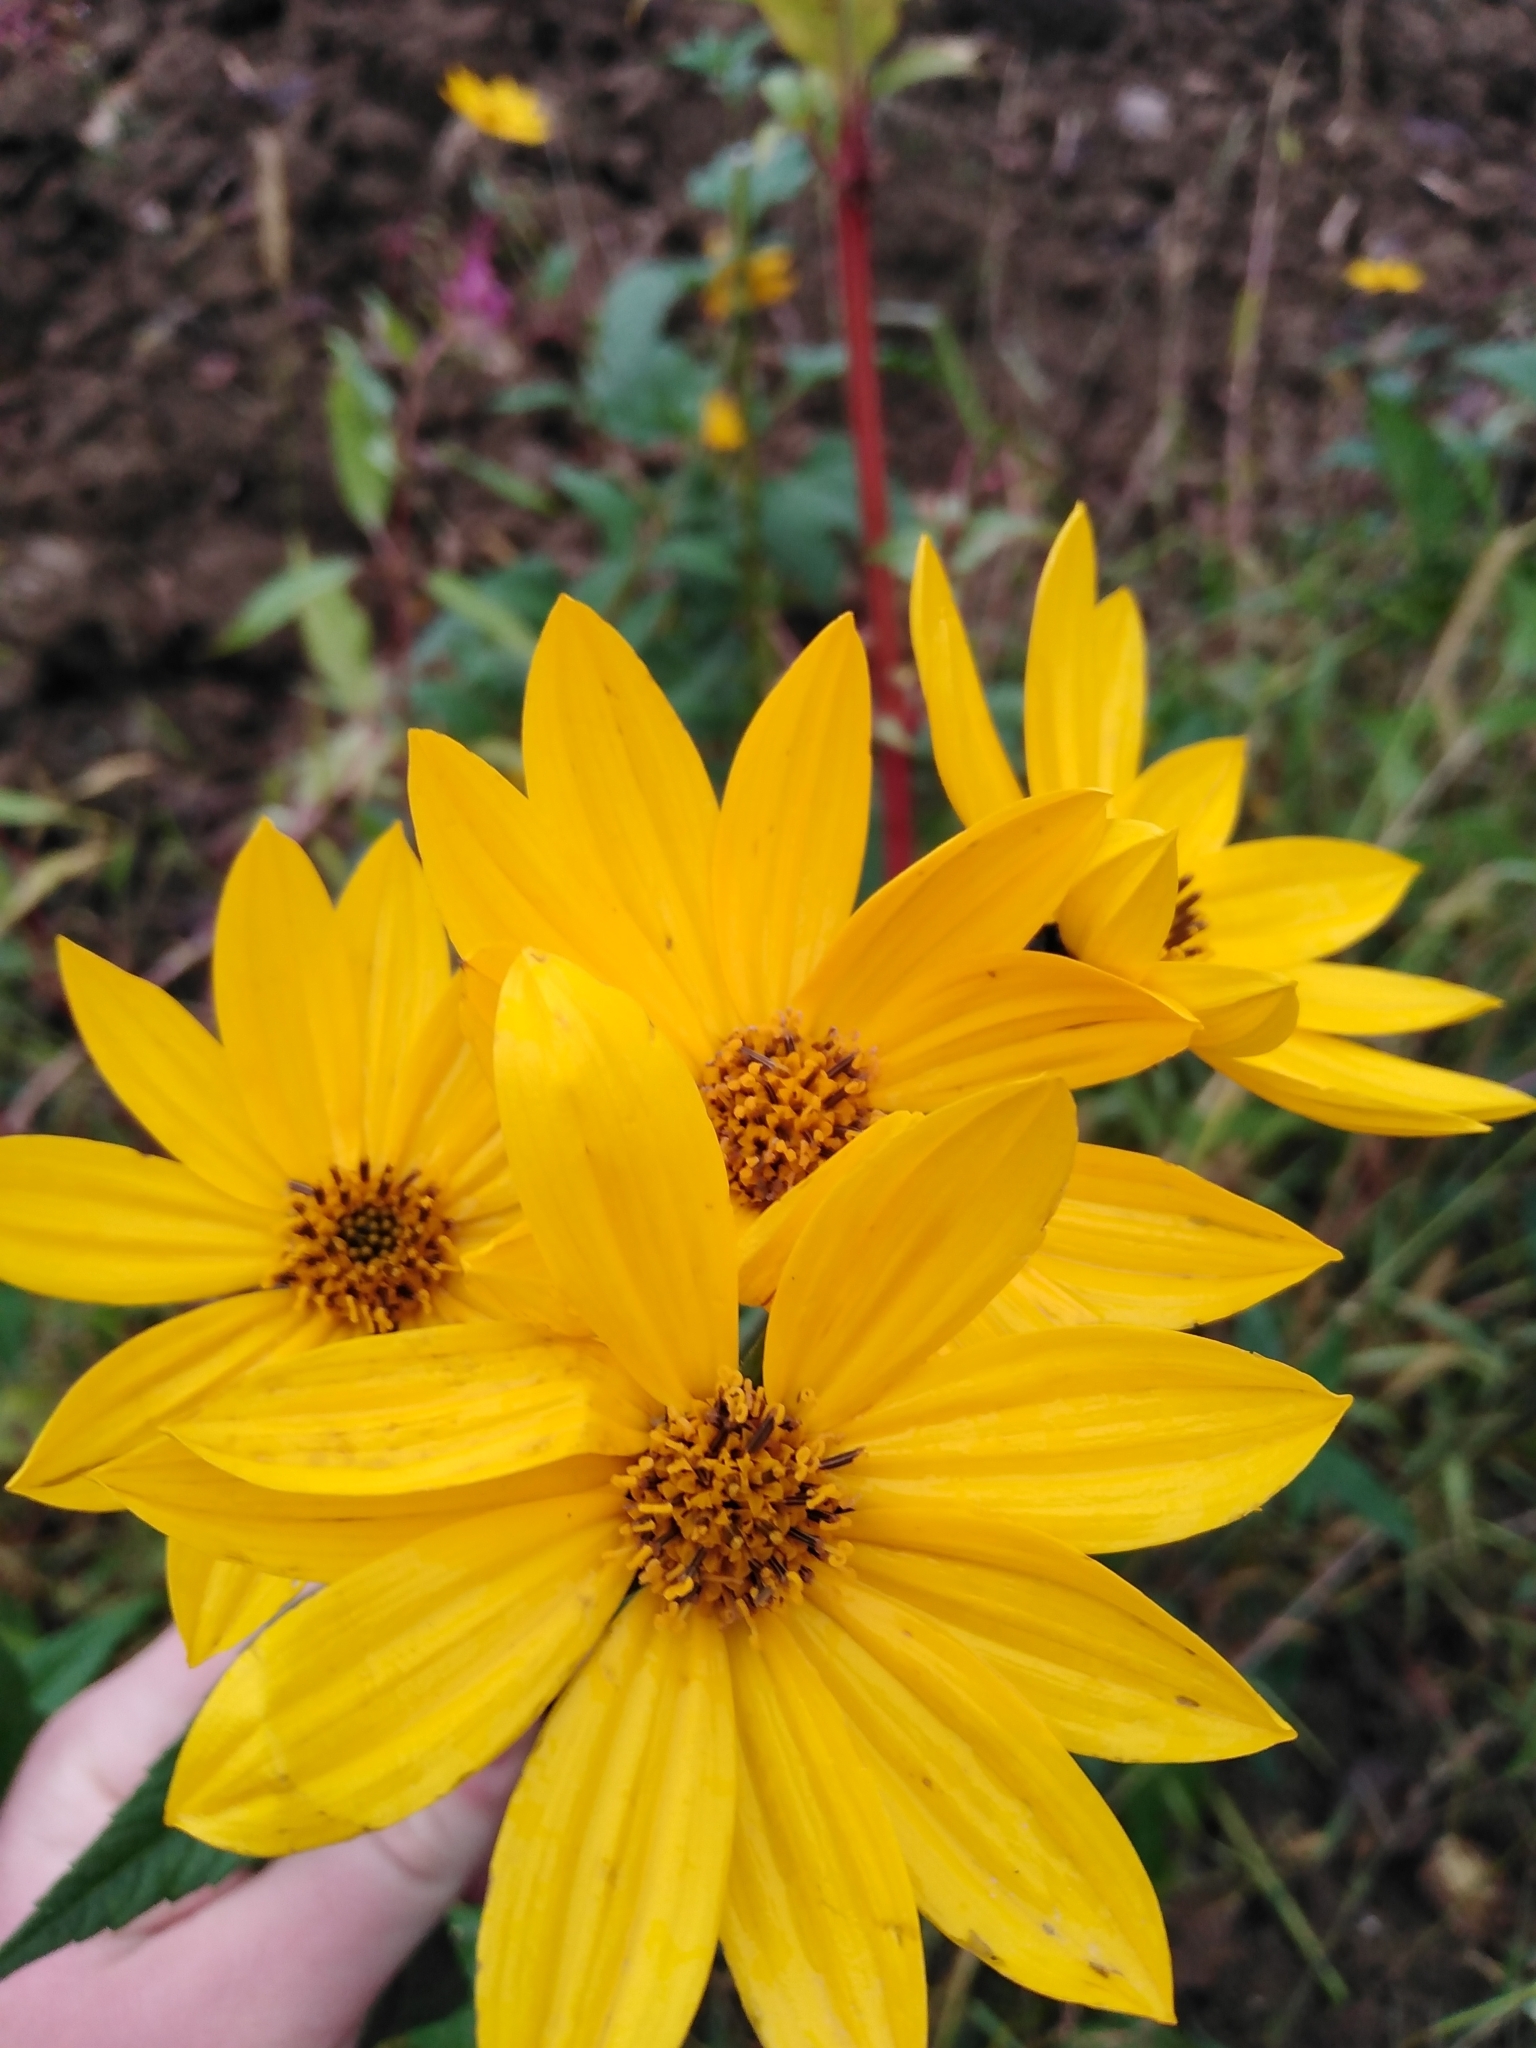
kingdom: Plantae
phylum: Tracheophyta
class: Magnoliopsida
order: Asterales
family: Asteraceae
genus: Helianthus
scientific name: Helianthus tuberosus
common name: Jerusalem artichoke
